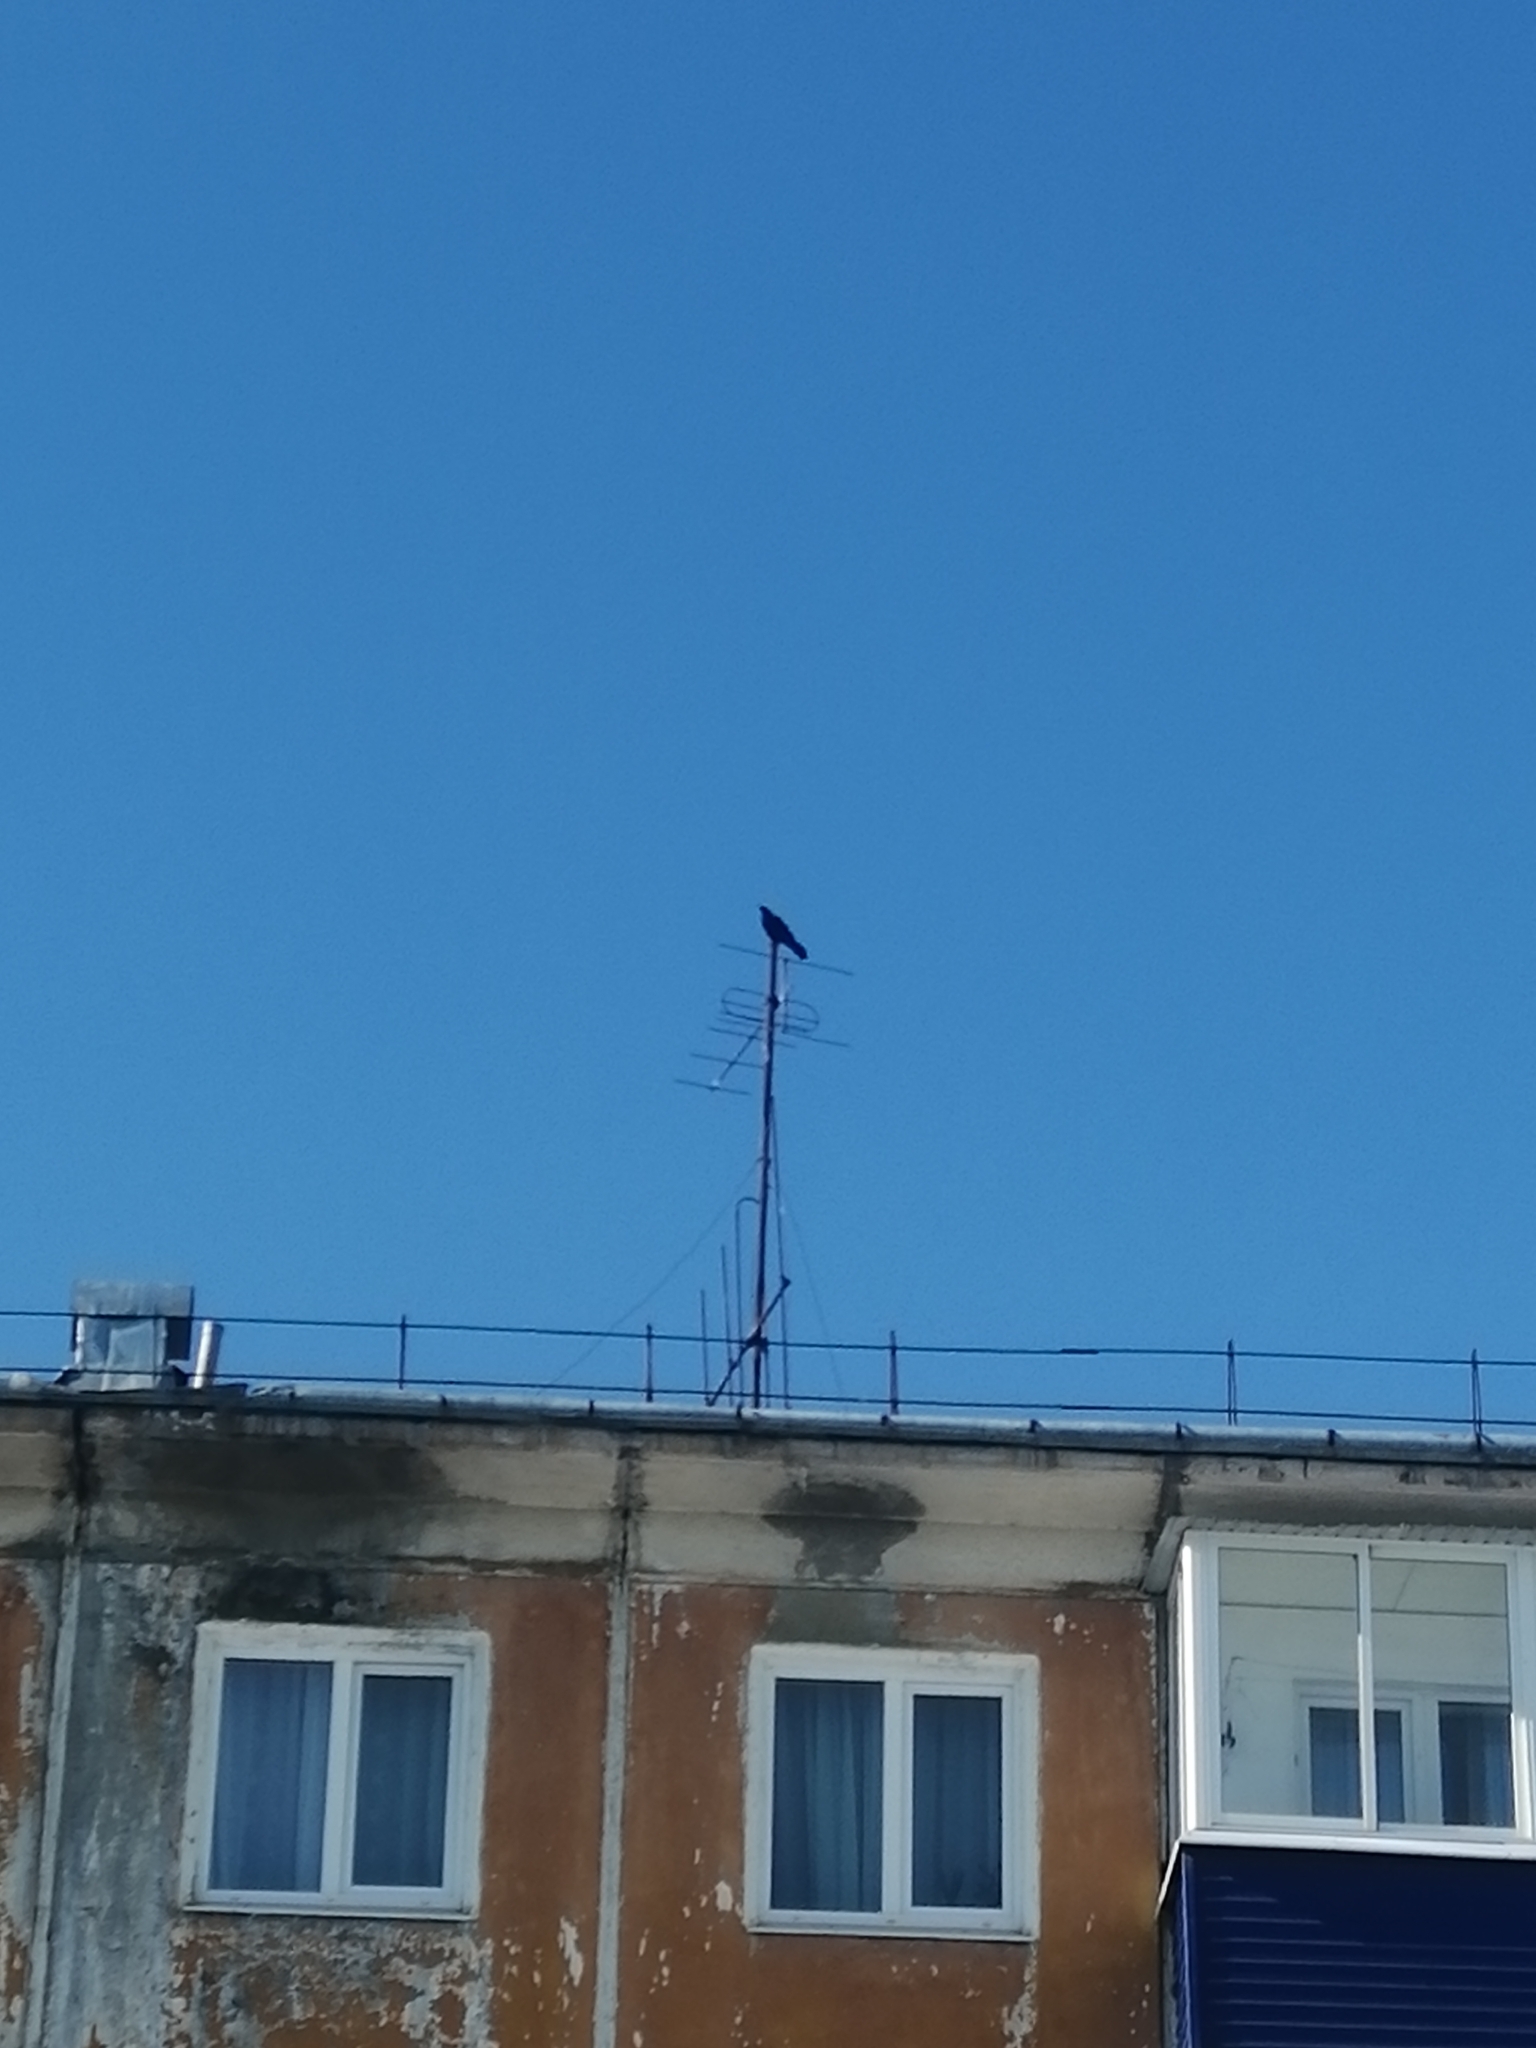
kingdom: Animalia
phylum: Chordata
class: Aves
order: Passeriformes
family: Corvidae
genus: Corvus
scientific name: Corvus corone
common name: Carrion crow
